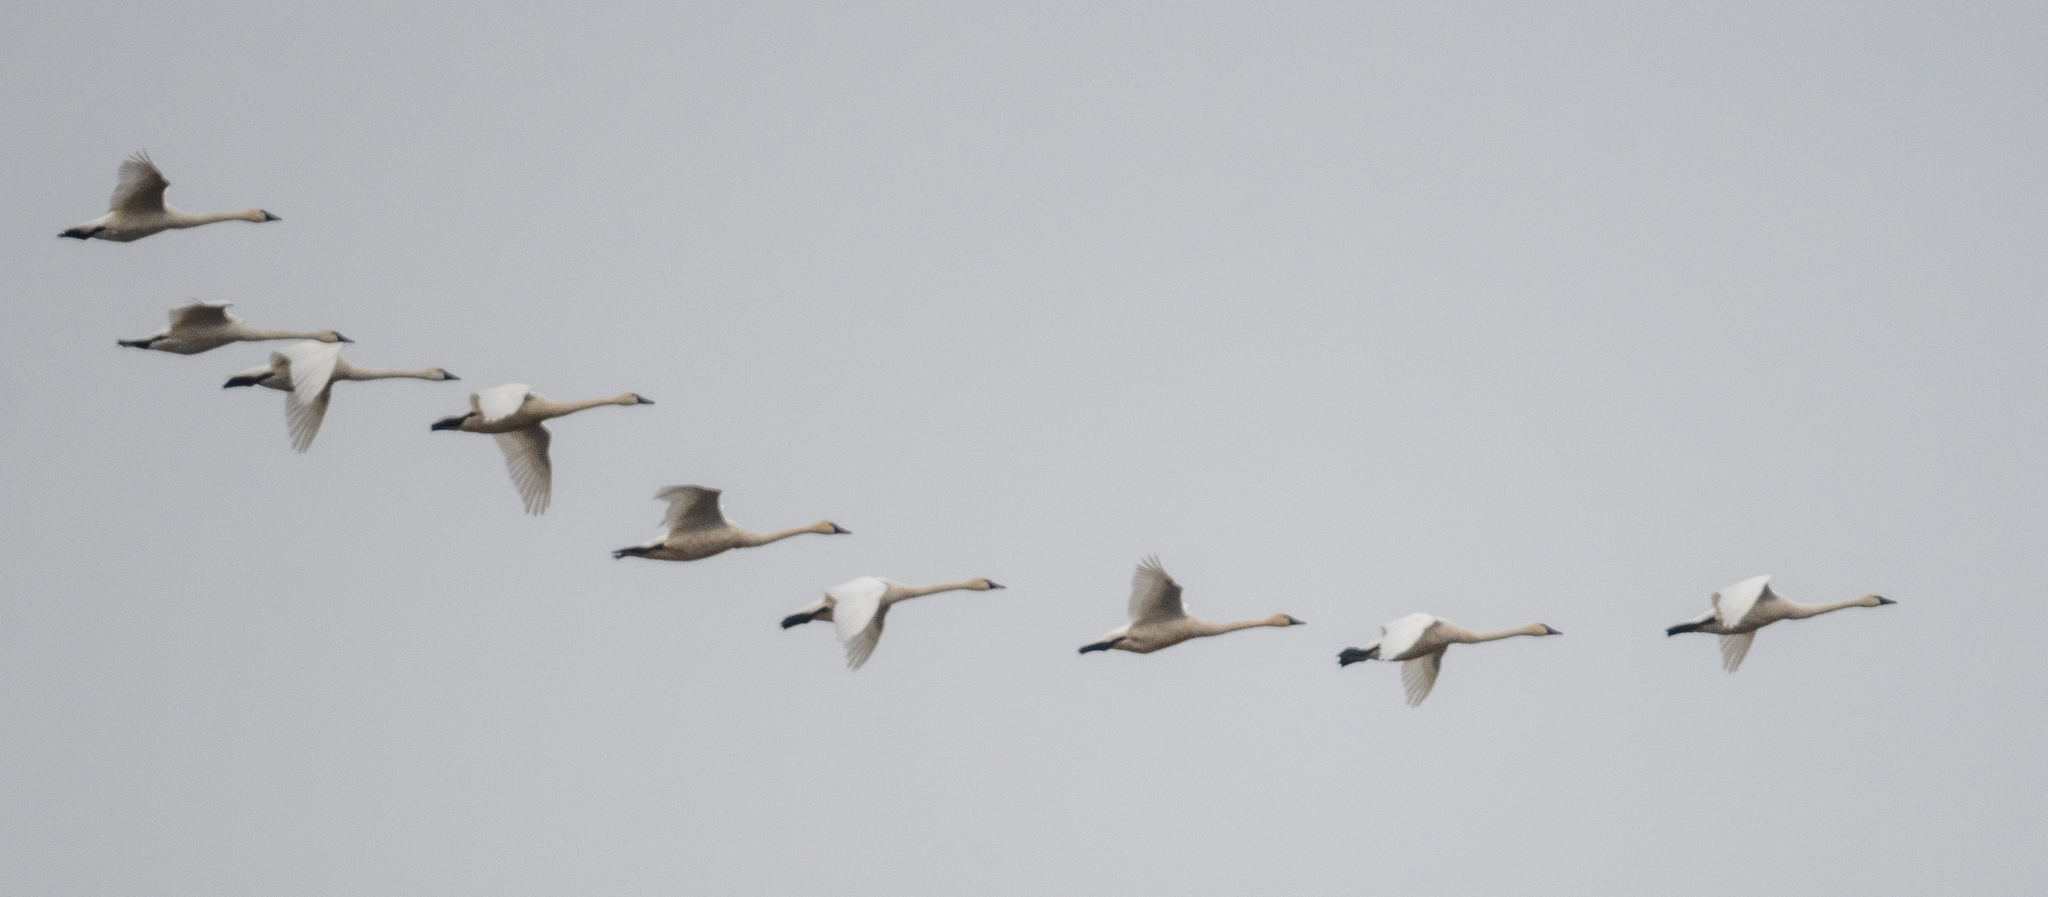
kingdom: Animalia
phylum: Chordata
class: Aves
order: Anseriformes
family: Anatidae
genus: Cygnus
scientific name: Cygnus columbianus
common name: Tundra swan
